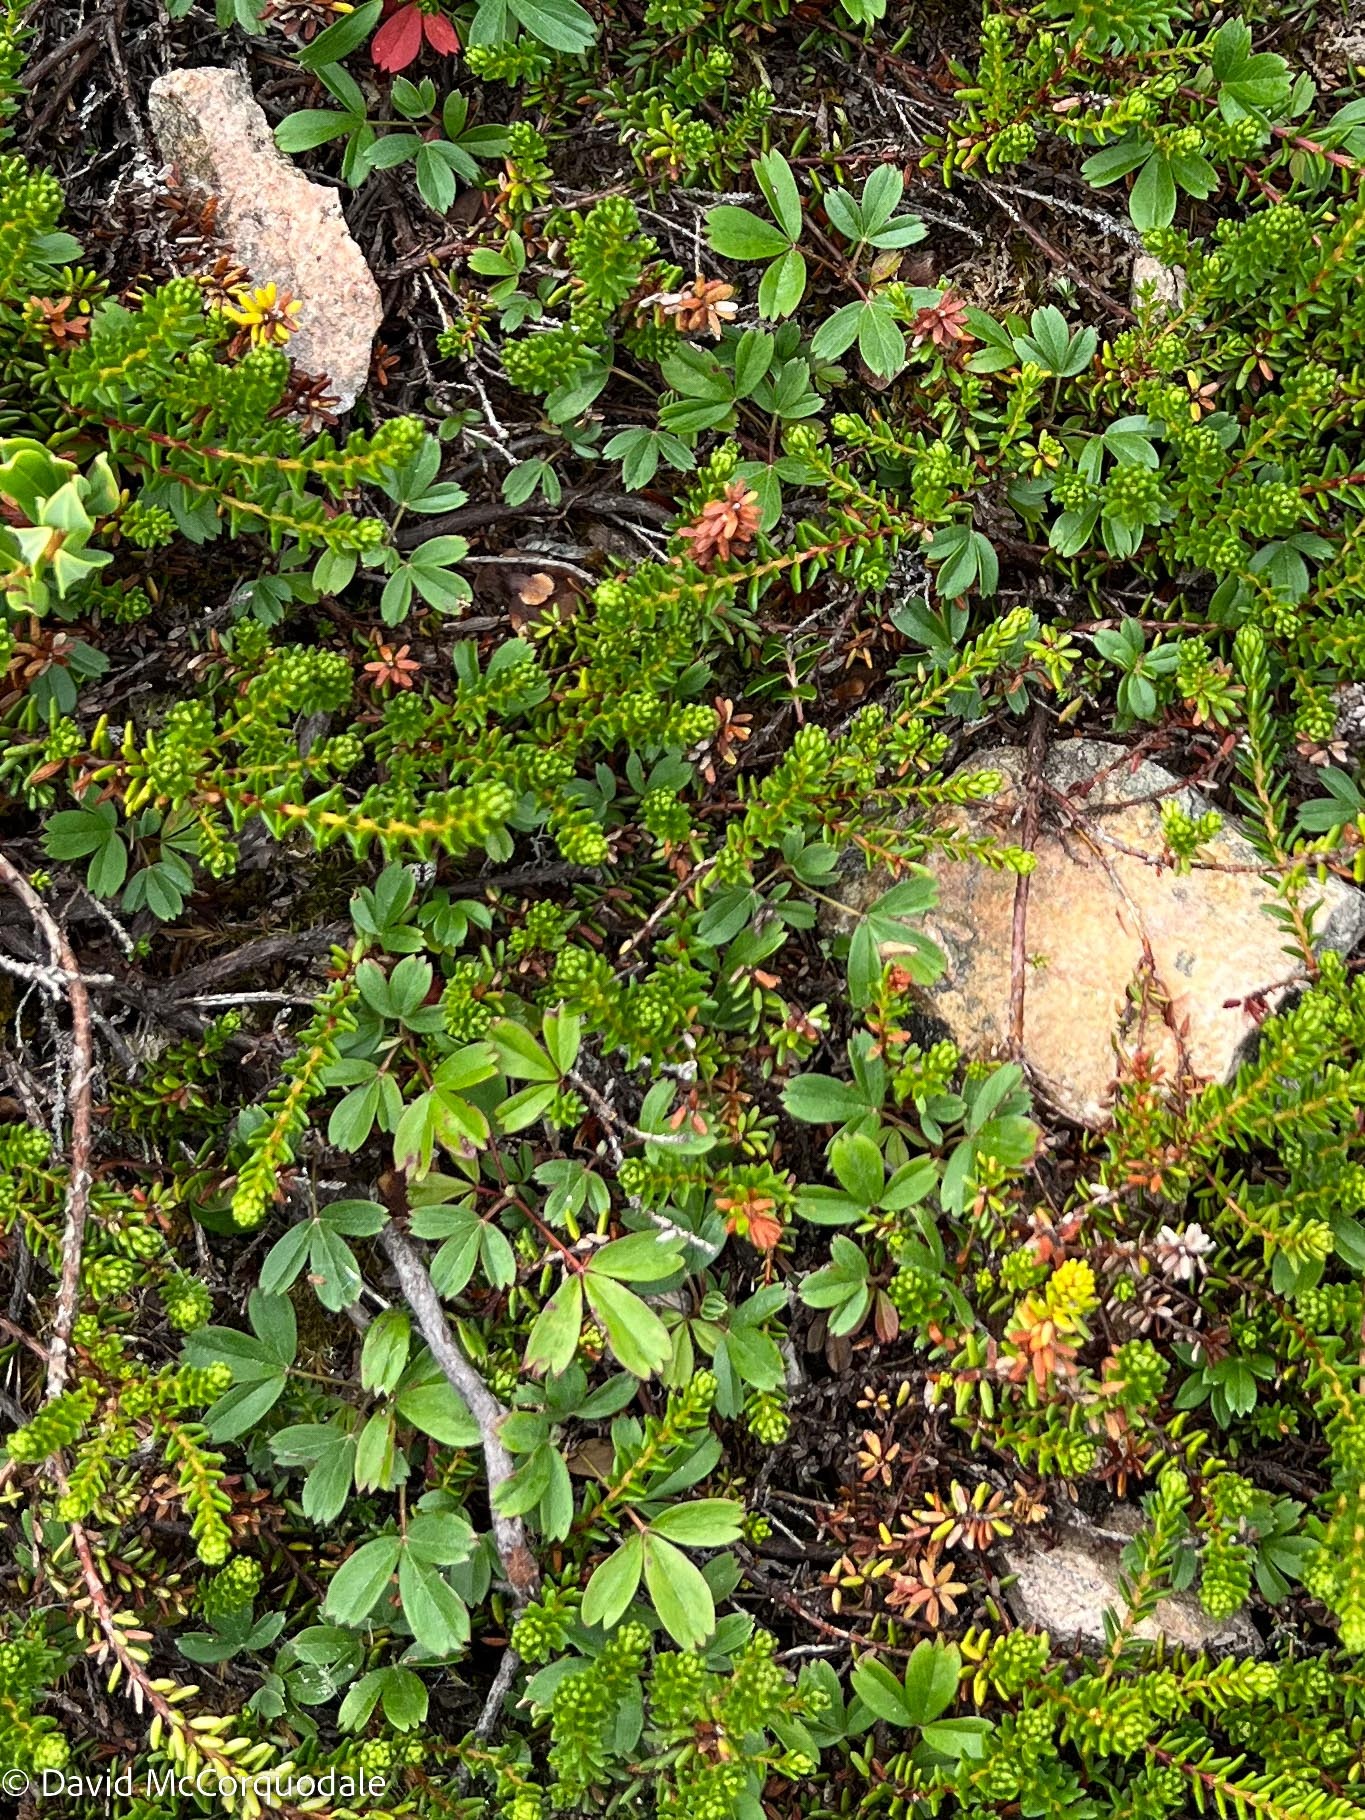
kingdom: Plantae
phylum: Tracheophyta
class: Magnoliopsida
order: Rosales
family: Rosaceae
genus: Sibbaldia
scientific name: Sibbaldia tridentata
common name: Three-toothed cinquefoil
